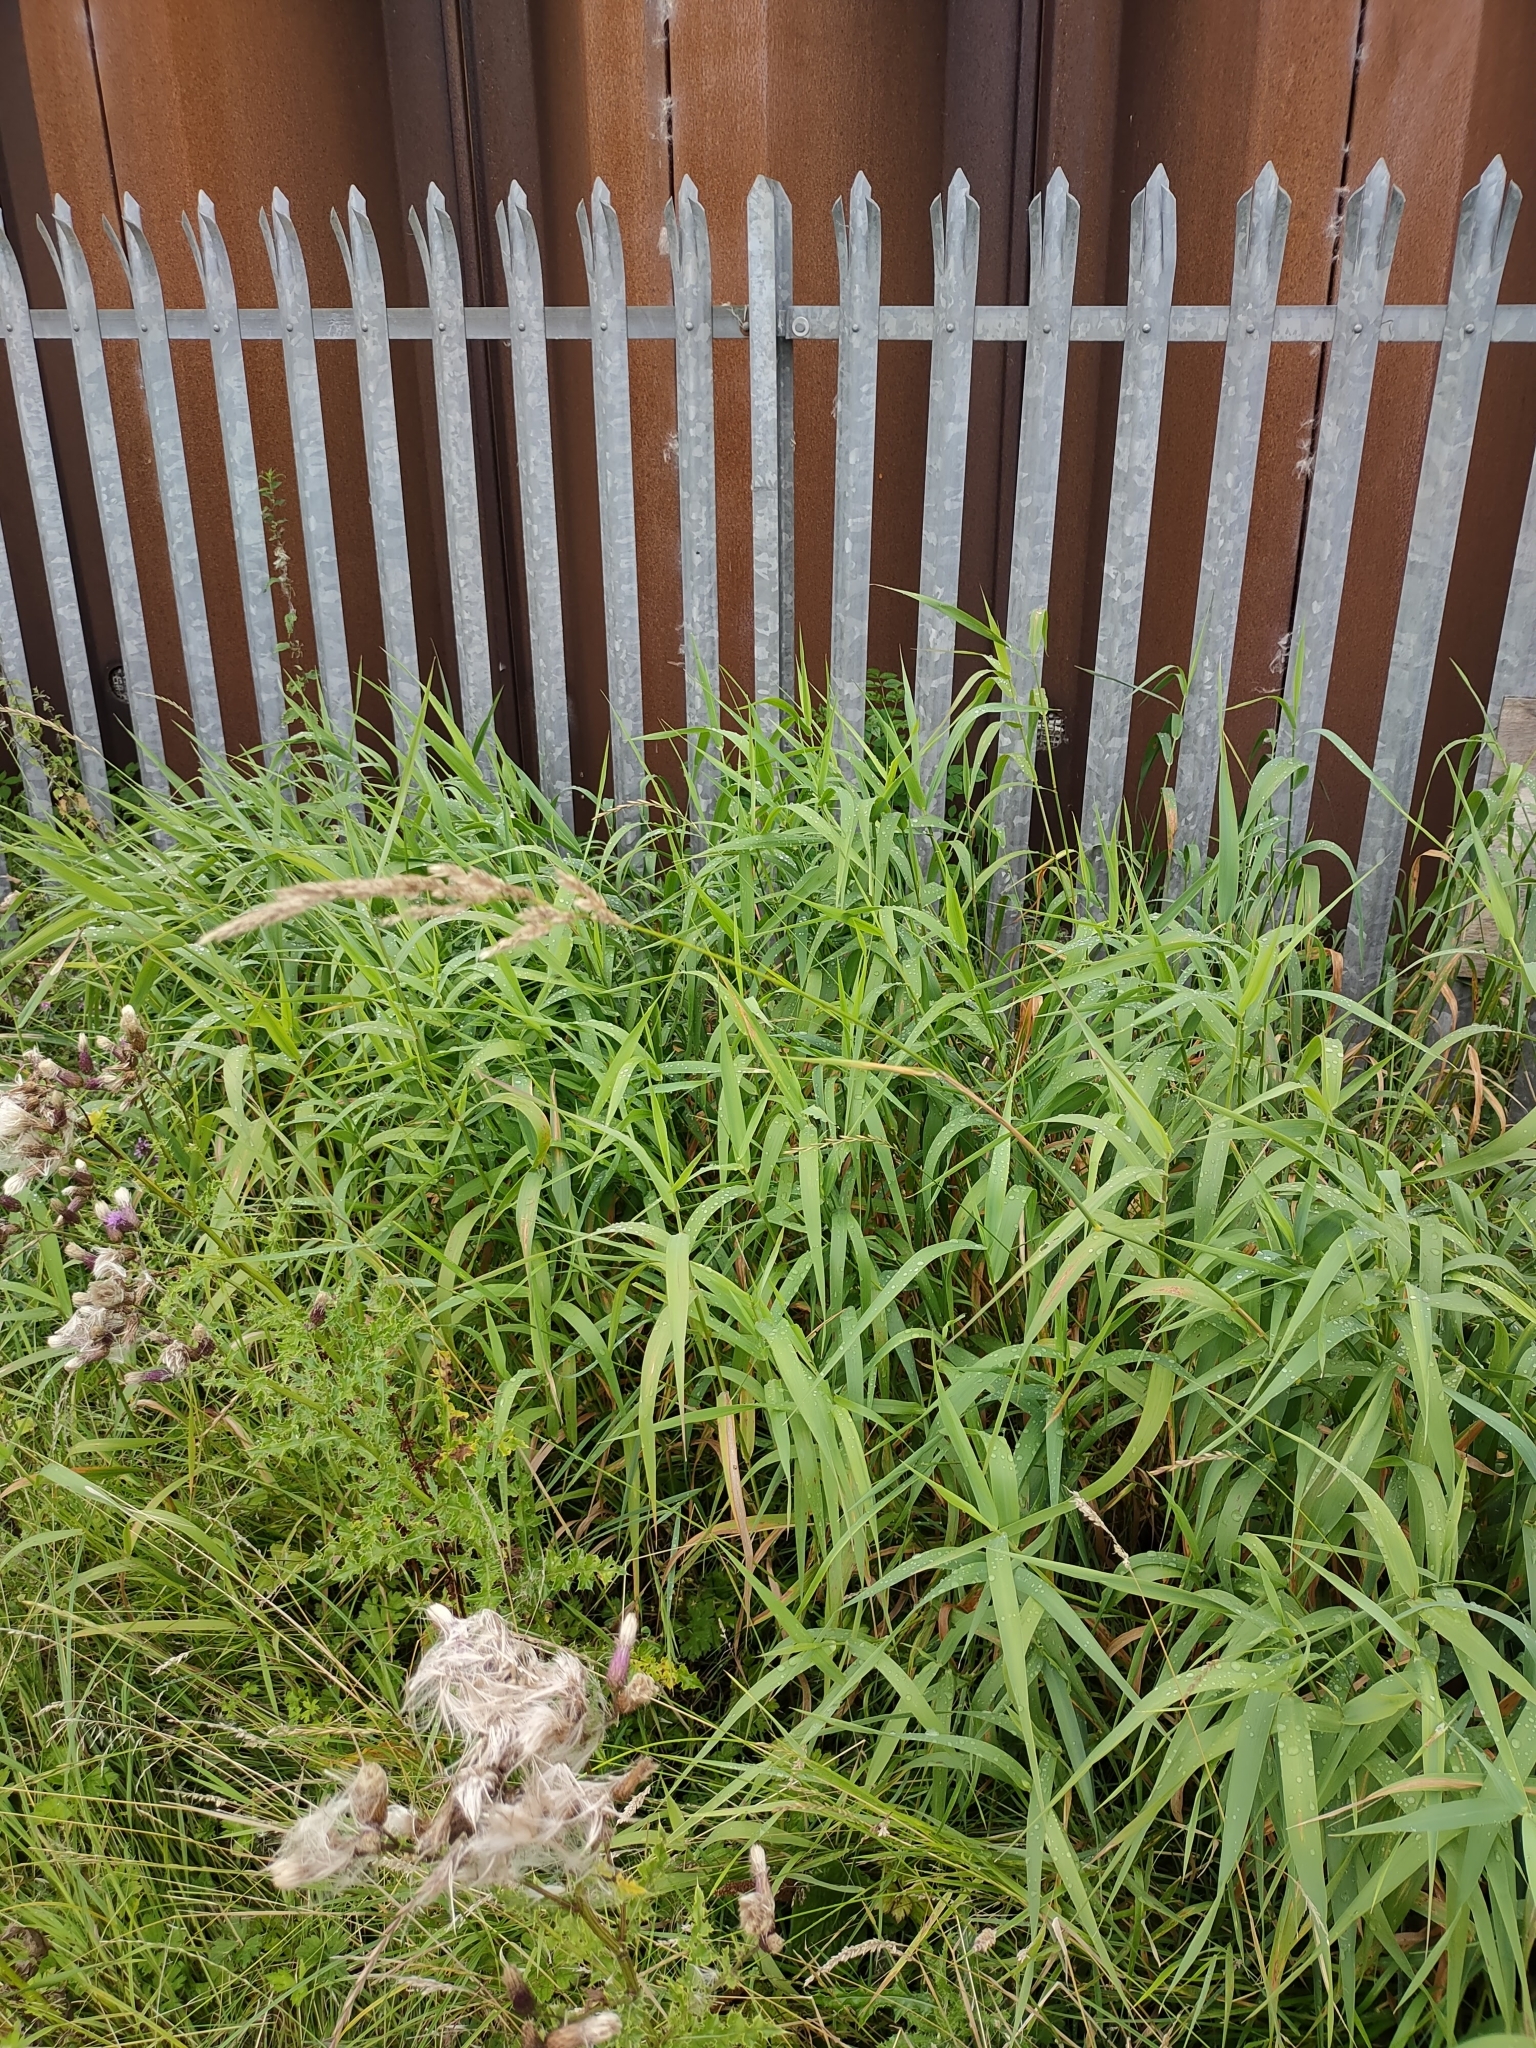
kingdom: Plantae
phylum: Tracheophyta
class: Liliopsida
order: Poales
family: Poaceae
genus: Phalaris
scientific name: Phalaris arundinacea
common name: Reed canary-grass
